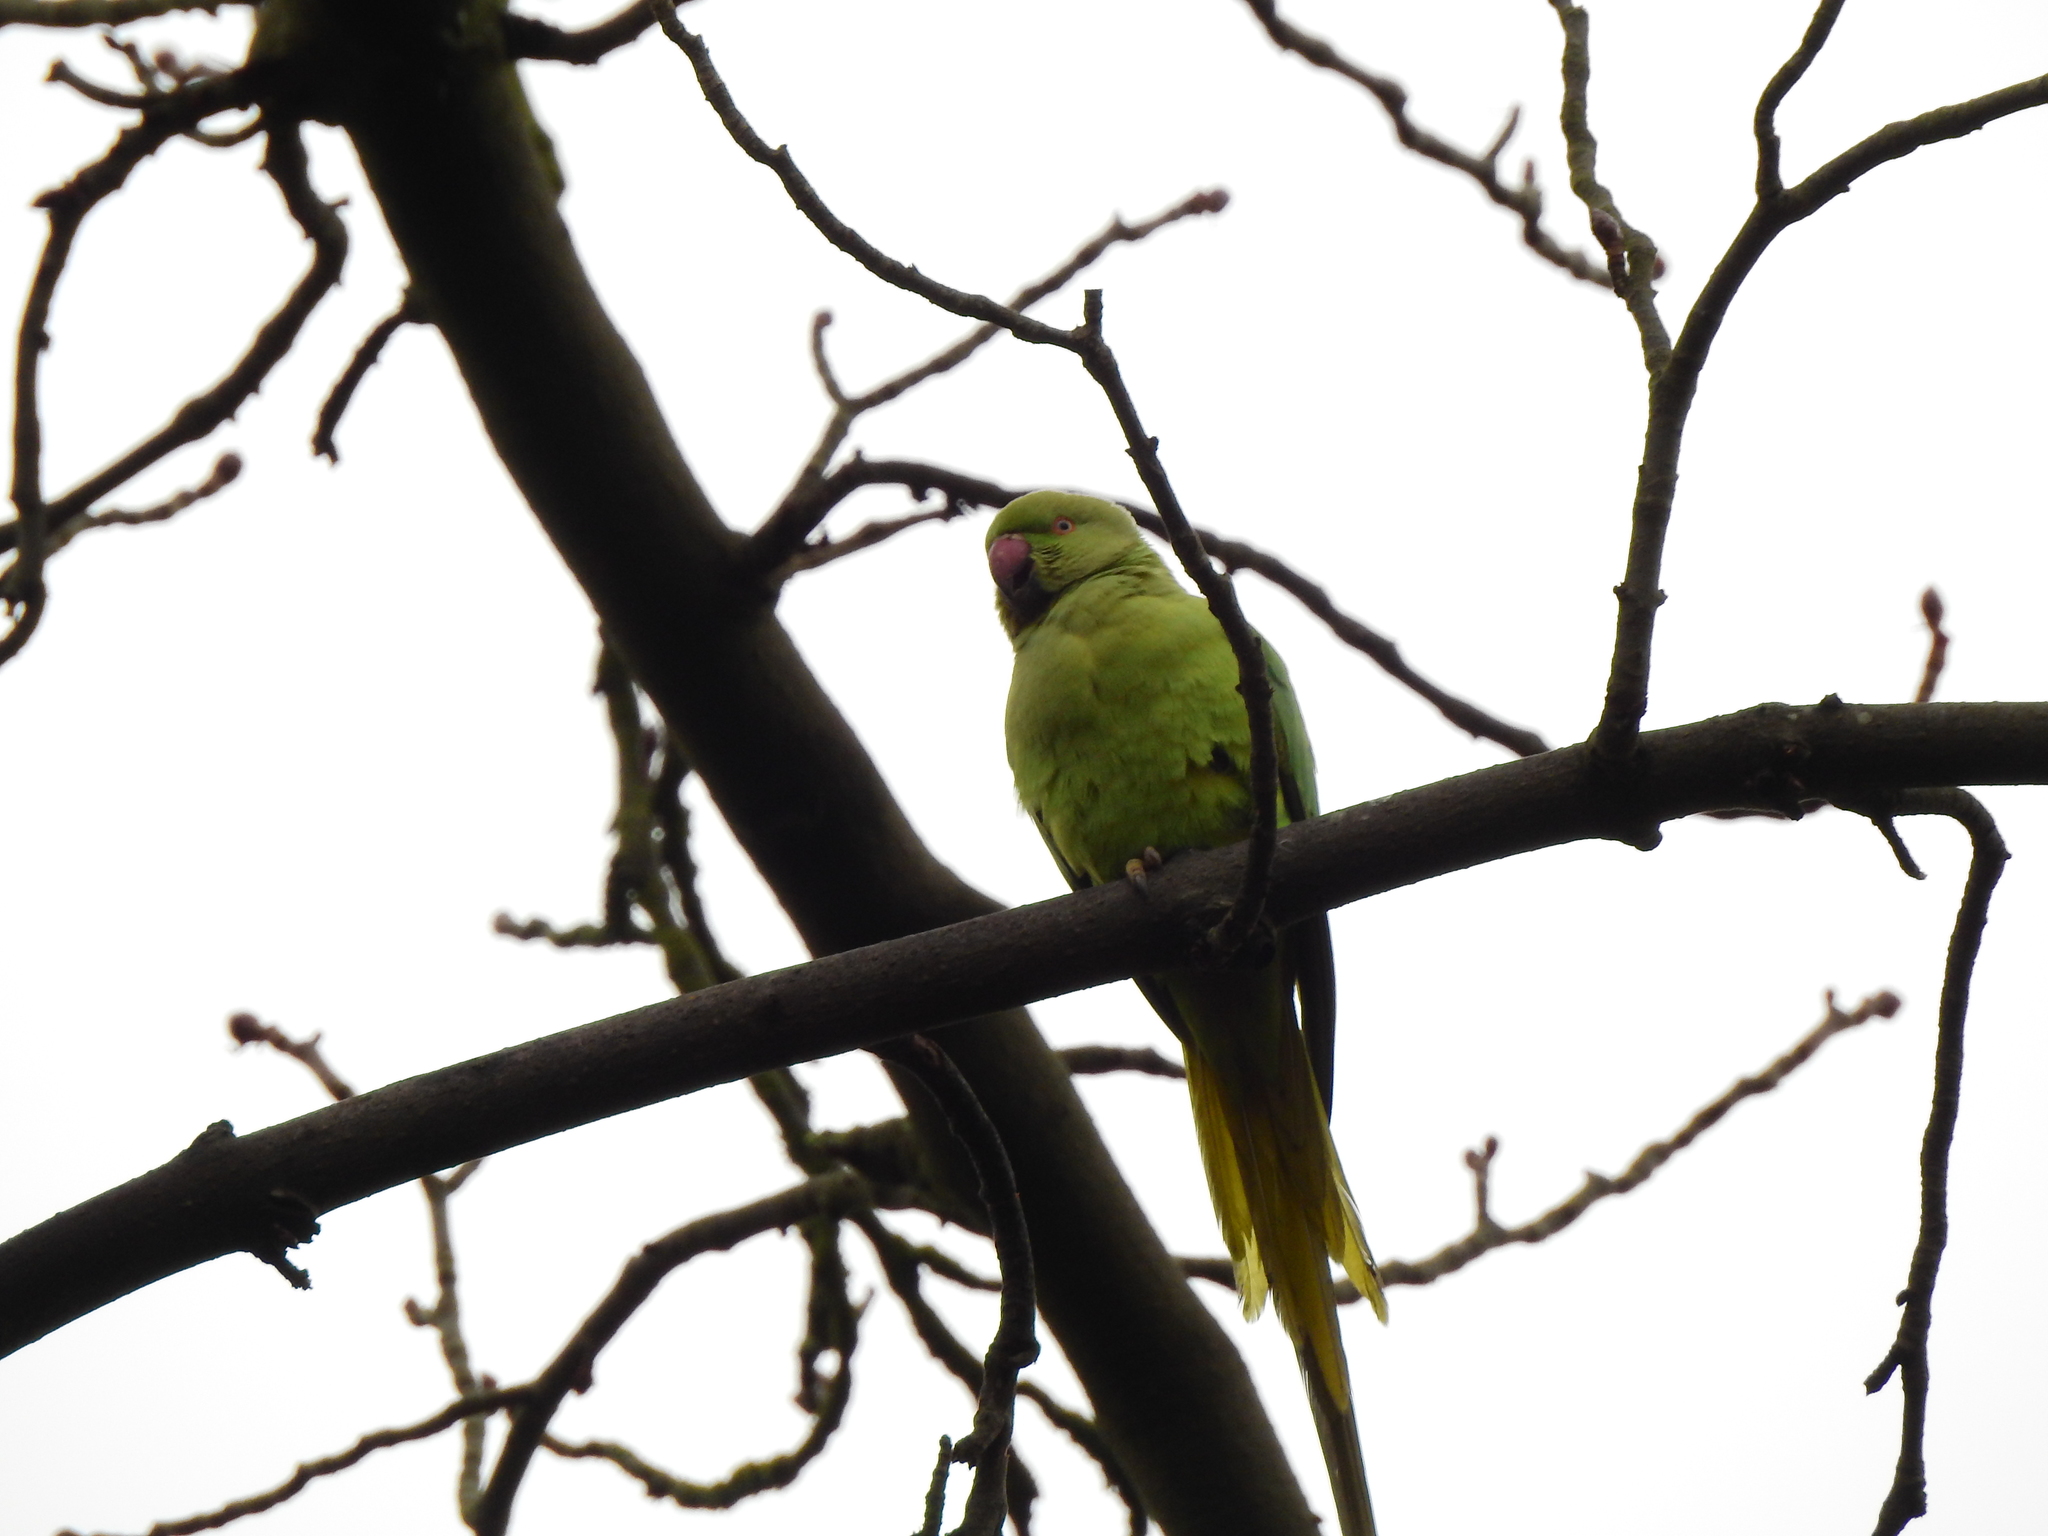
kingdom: Animalia
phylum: Chordata
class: Aves
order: Psittaciformes
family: Psittacidae
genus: Psittacula
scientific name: Psittacula krameri
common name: Rose-ringed parakeet
